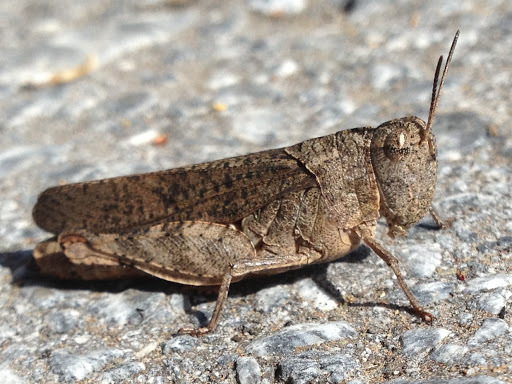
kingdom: Animalia
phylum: Arthropoda
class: Insecta
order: Orthoptera
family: Acrididae
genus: Arphia
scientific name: Arphia behrensi
